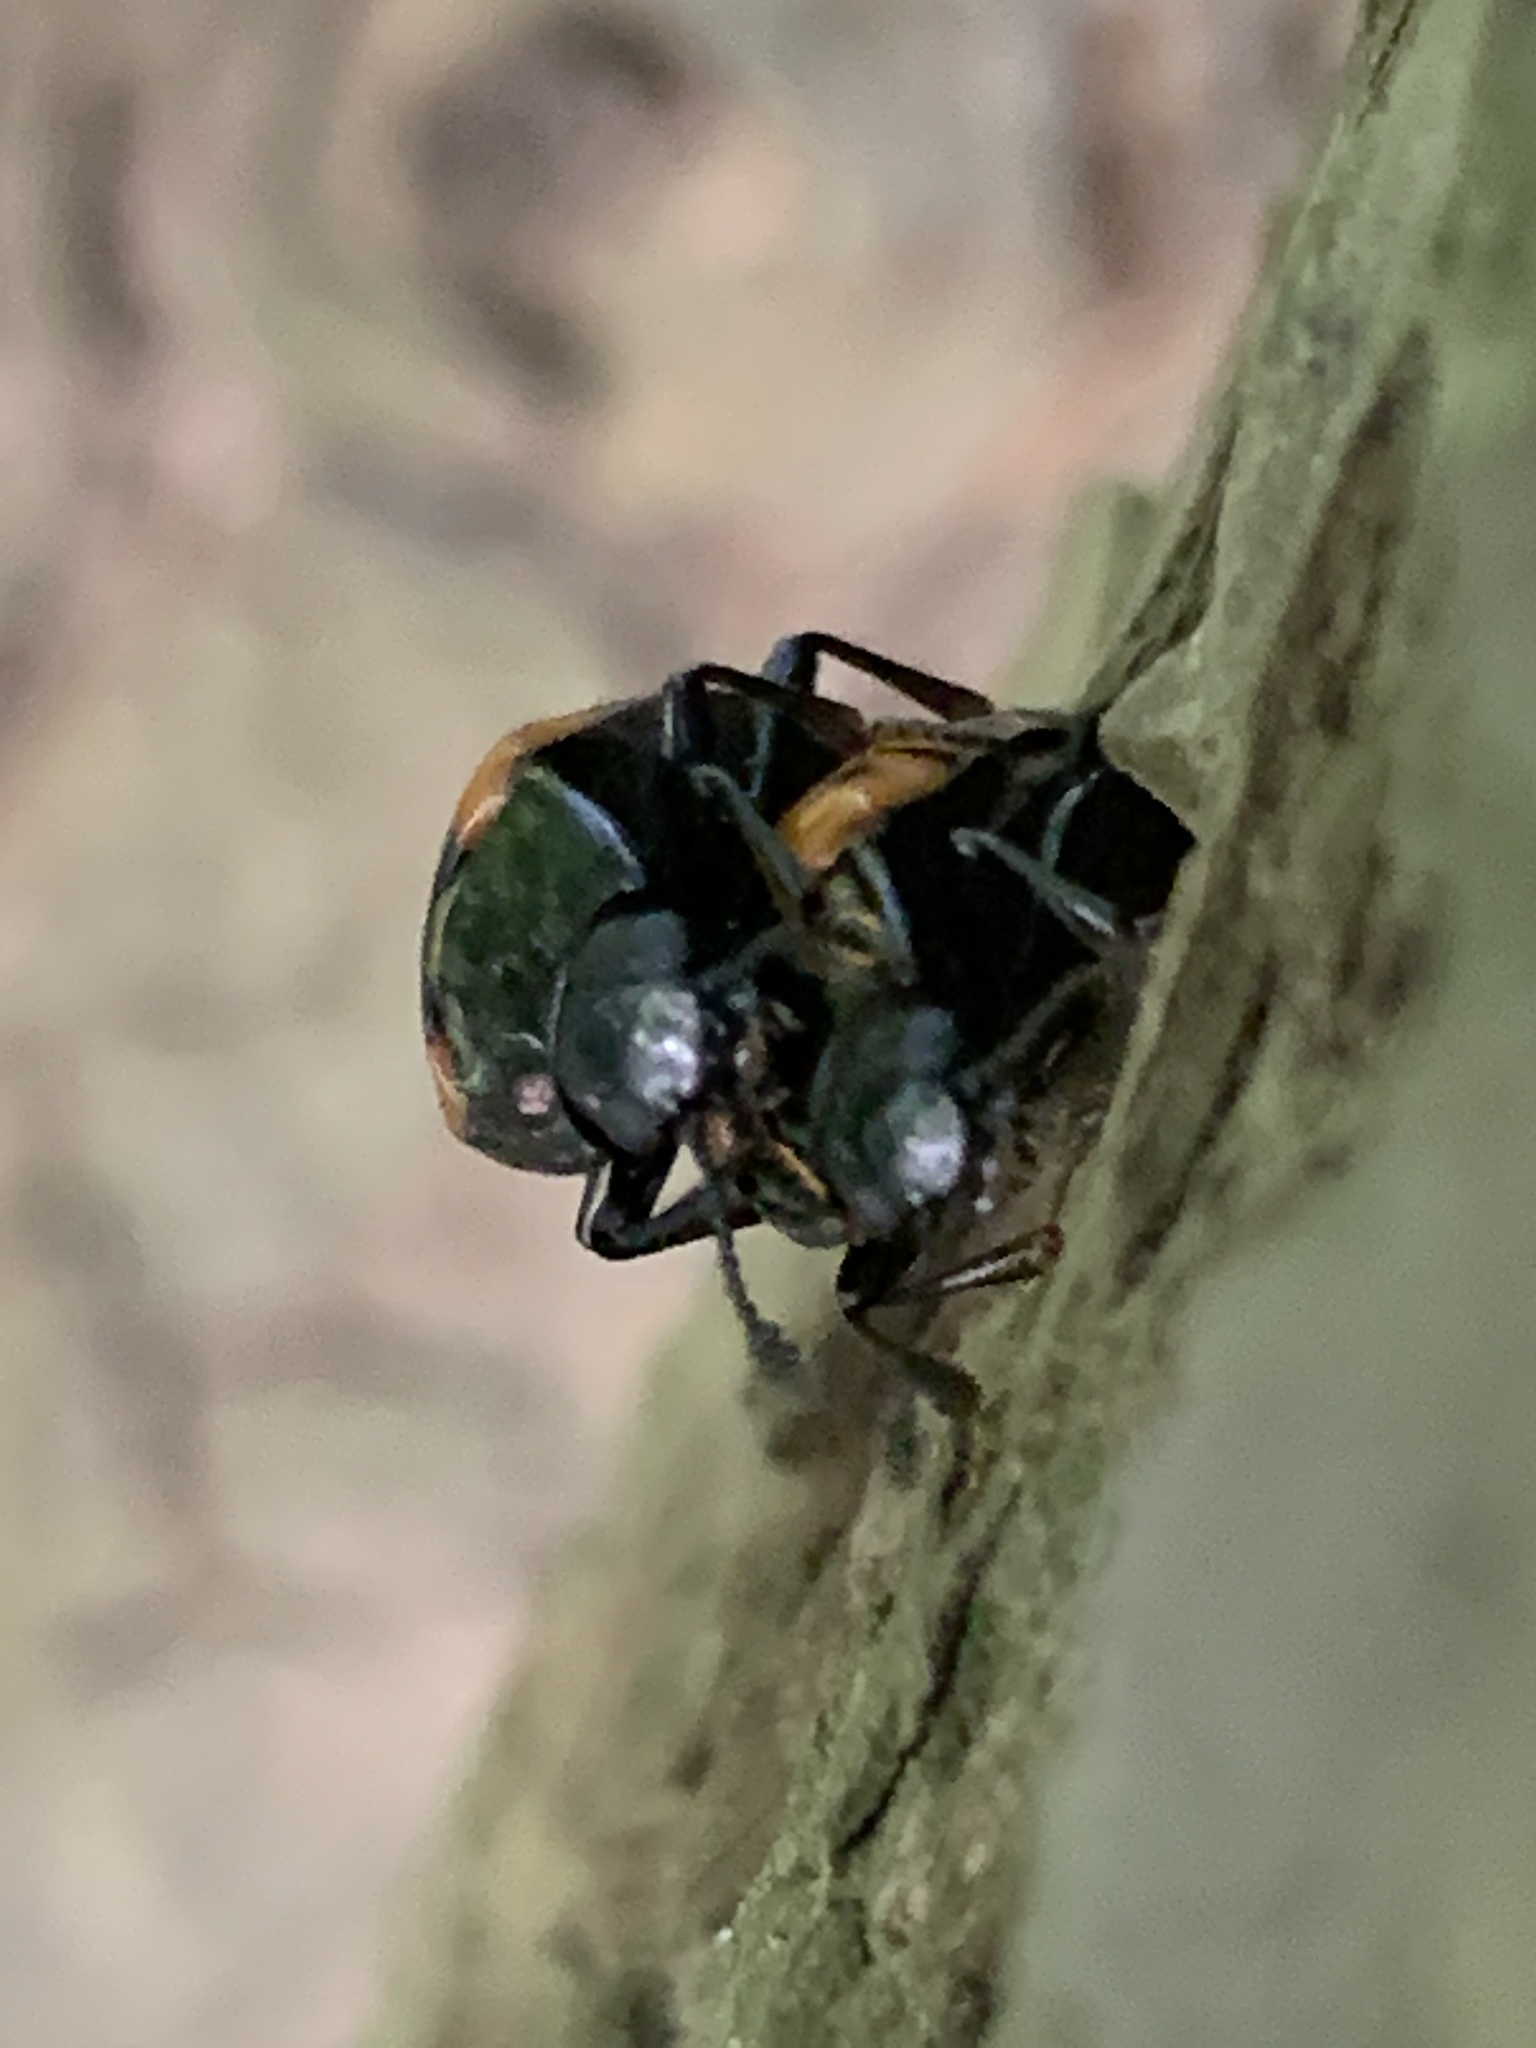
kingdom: Animalia
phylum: Arthropoda
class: Insecta
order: Coleoptera
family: Erotylidae
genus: Megalodacne
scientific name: Megalodacne fasciata
